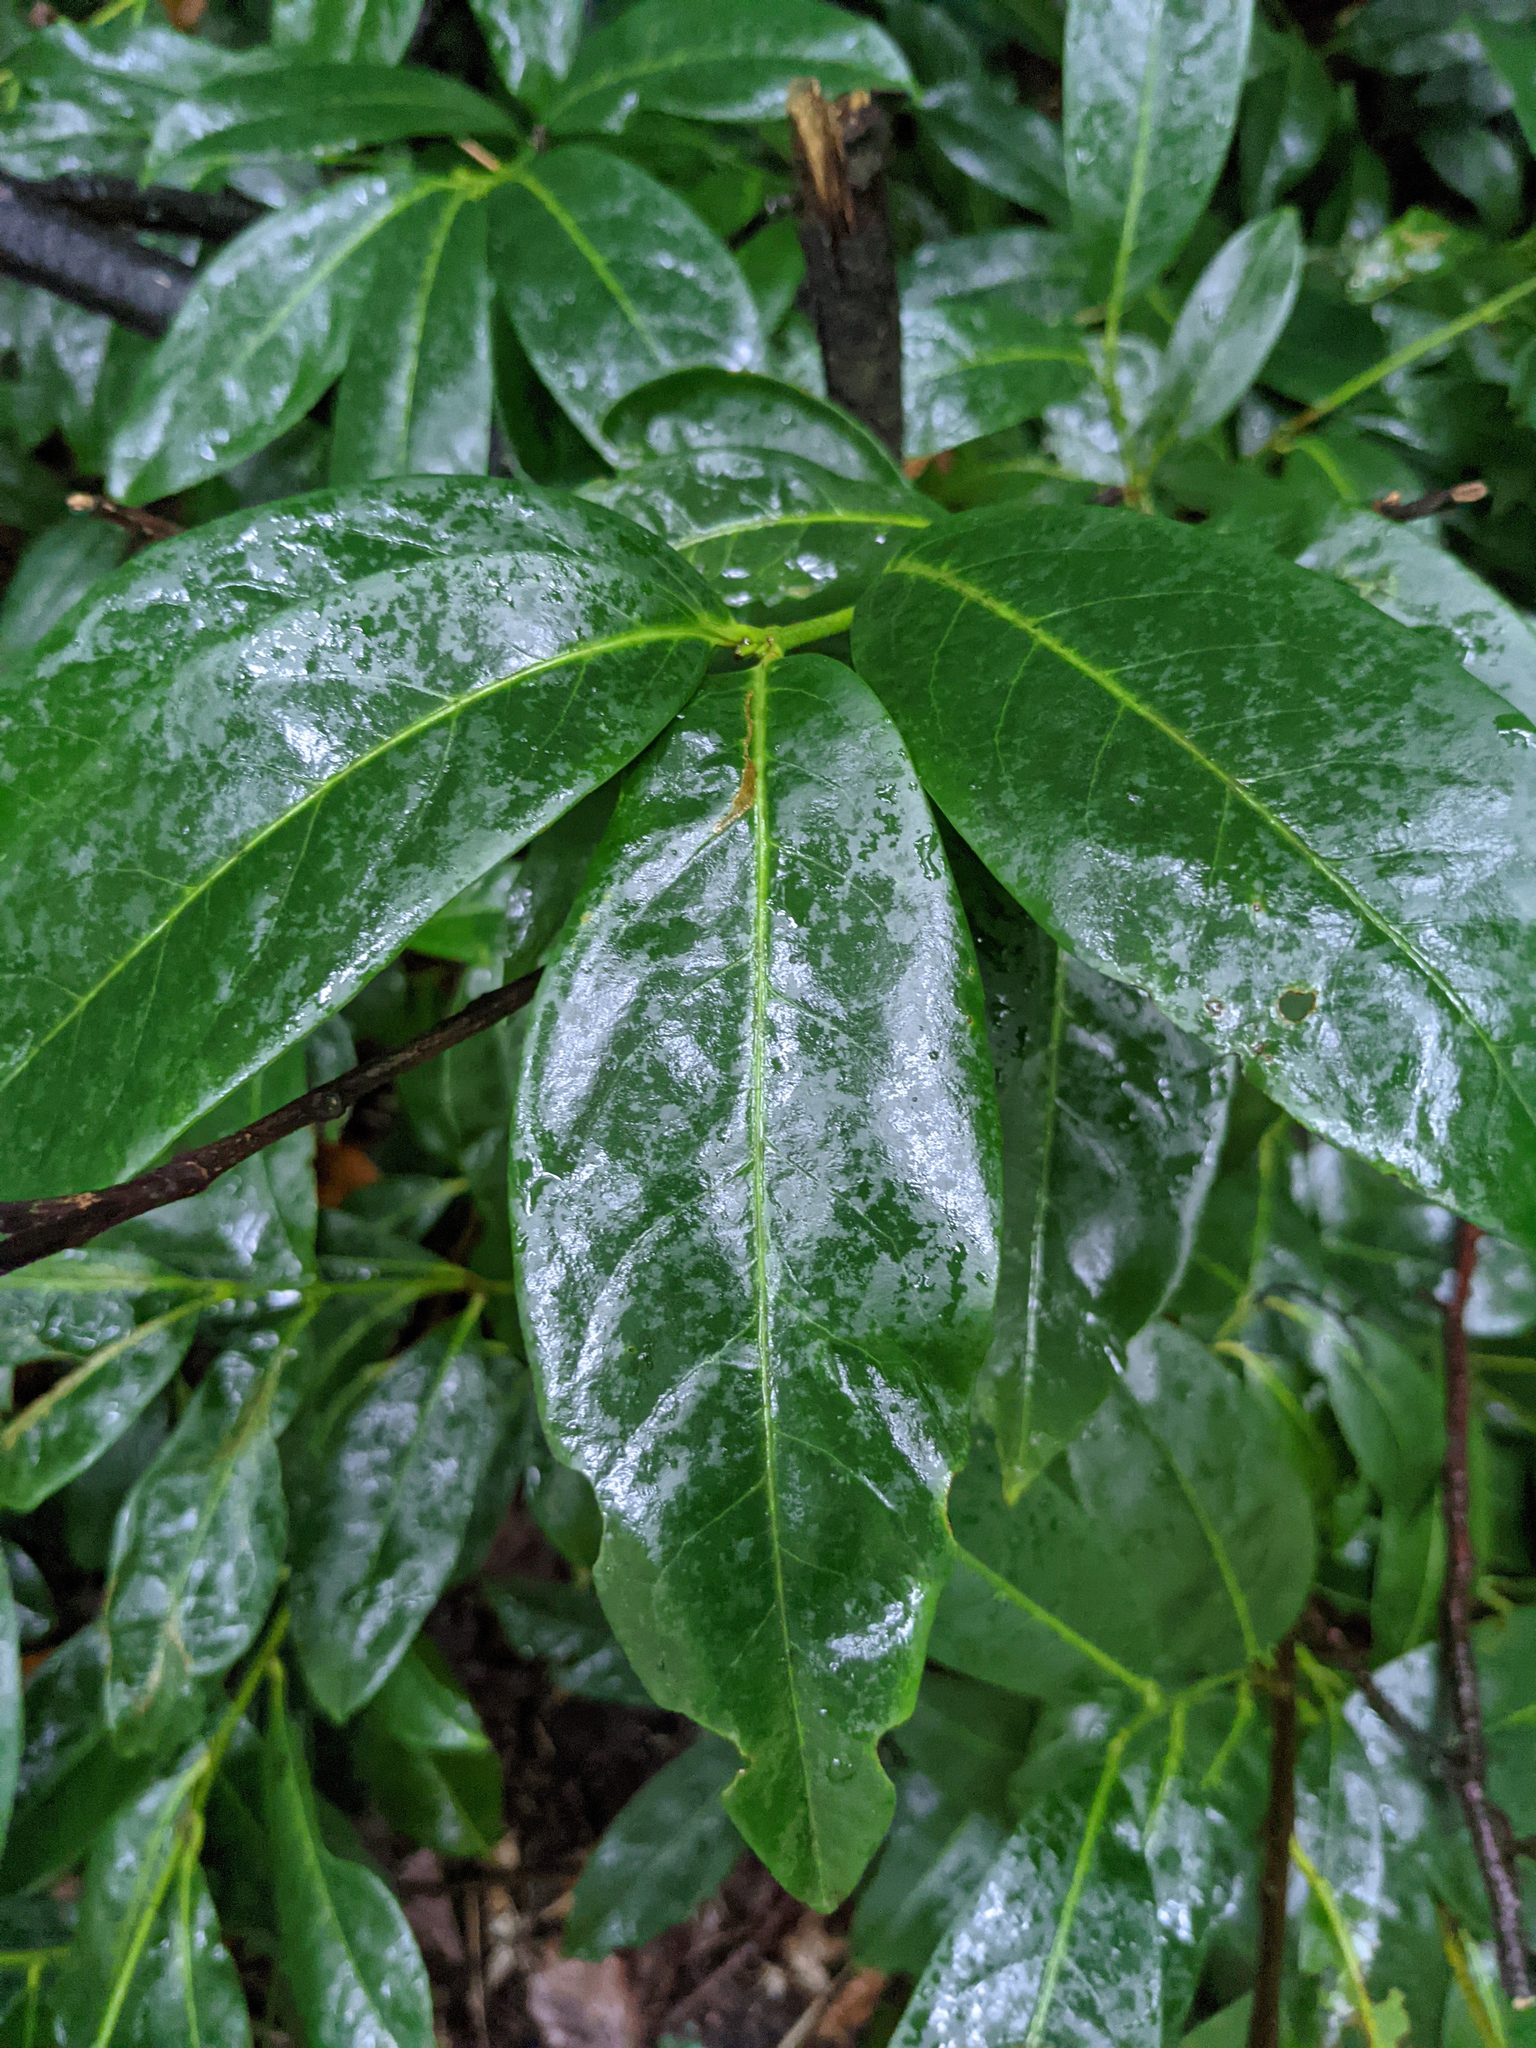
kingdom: Plantae
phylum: Tracheophyta
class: Magnoliopsida
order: Rosales
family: Rosaceae
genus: Prunus
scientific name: Prunus laurocerasus
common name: Cherry laurel
